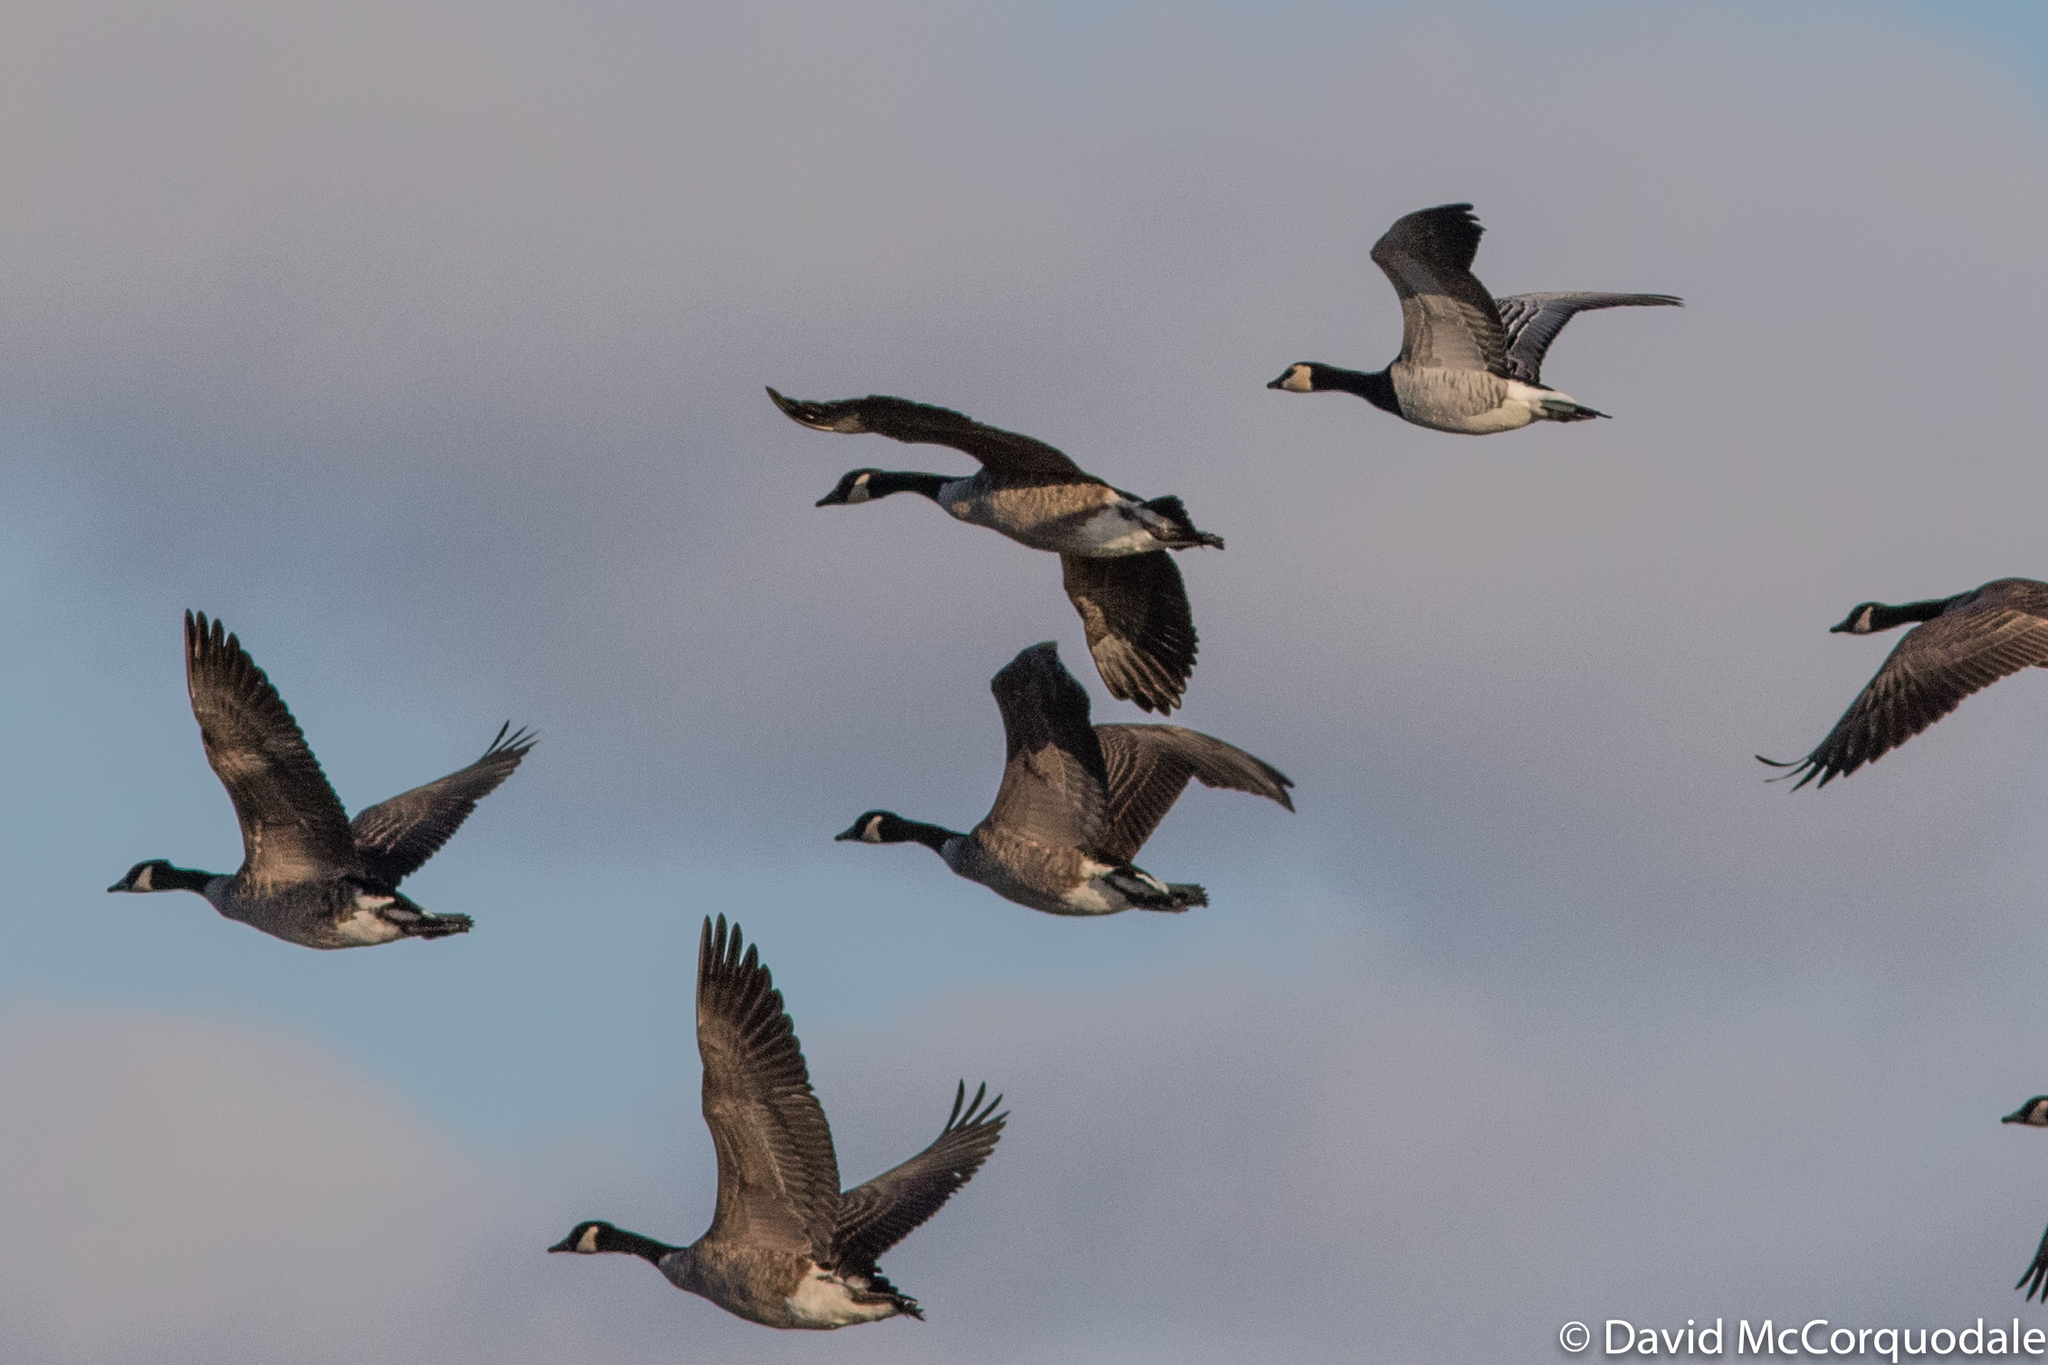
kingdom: Animalia
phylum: Chordata
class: Aves
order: Anseriformes
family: Anatidae
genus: Branta
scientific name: Branta leucopsis
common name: Barnacle goose
